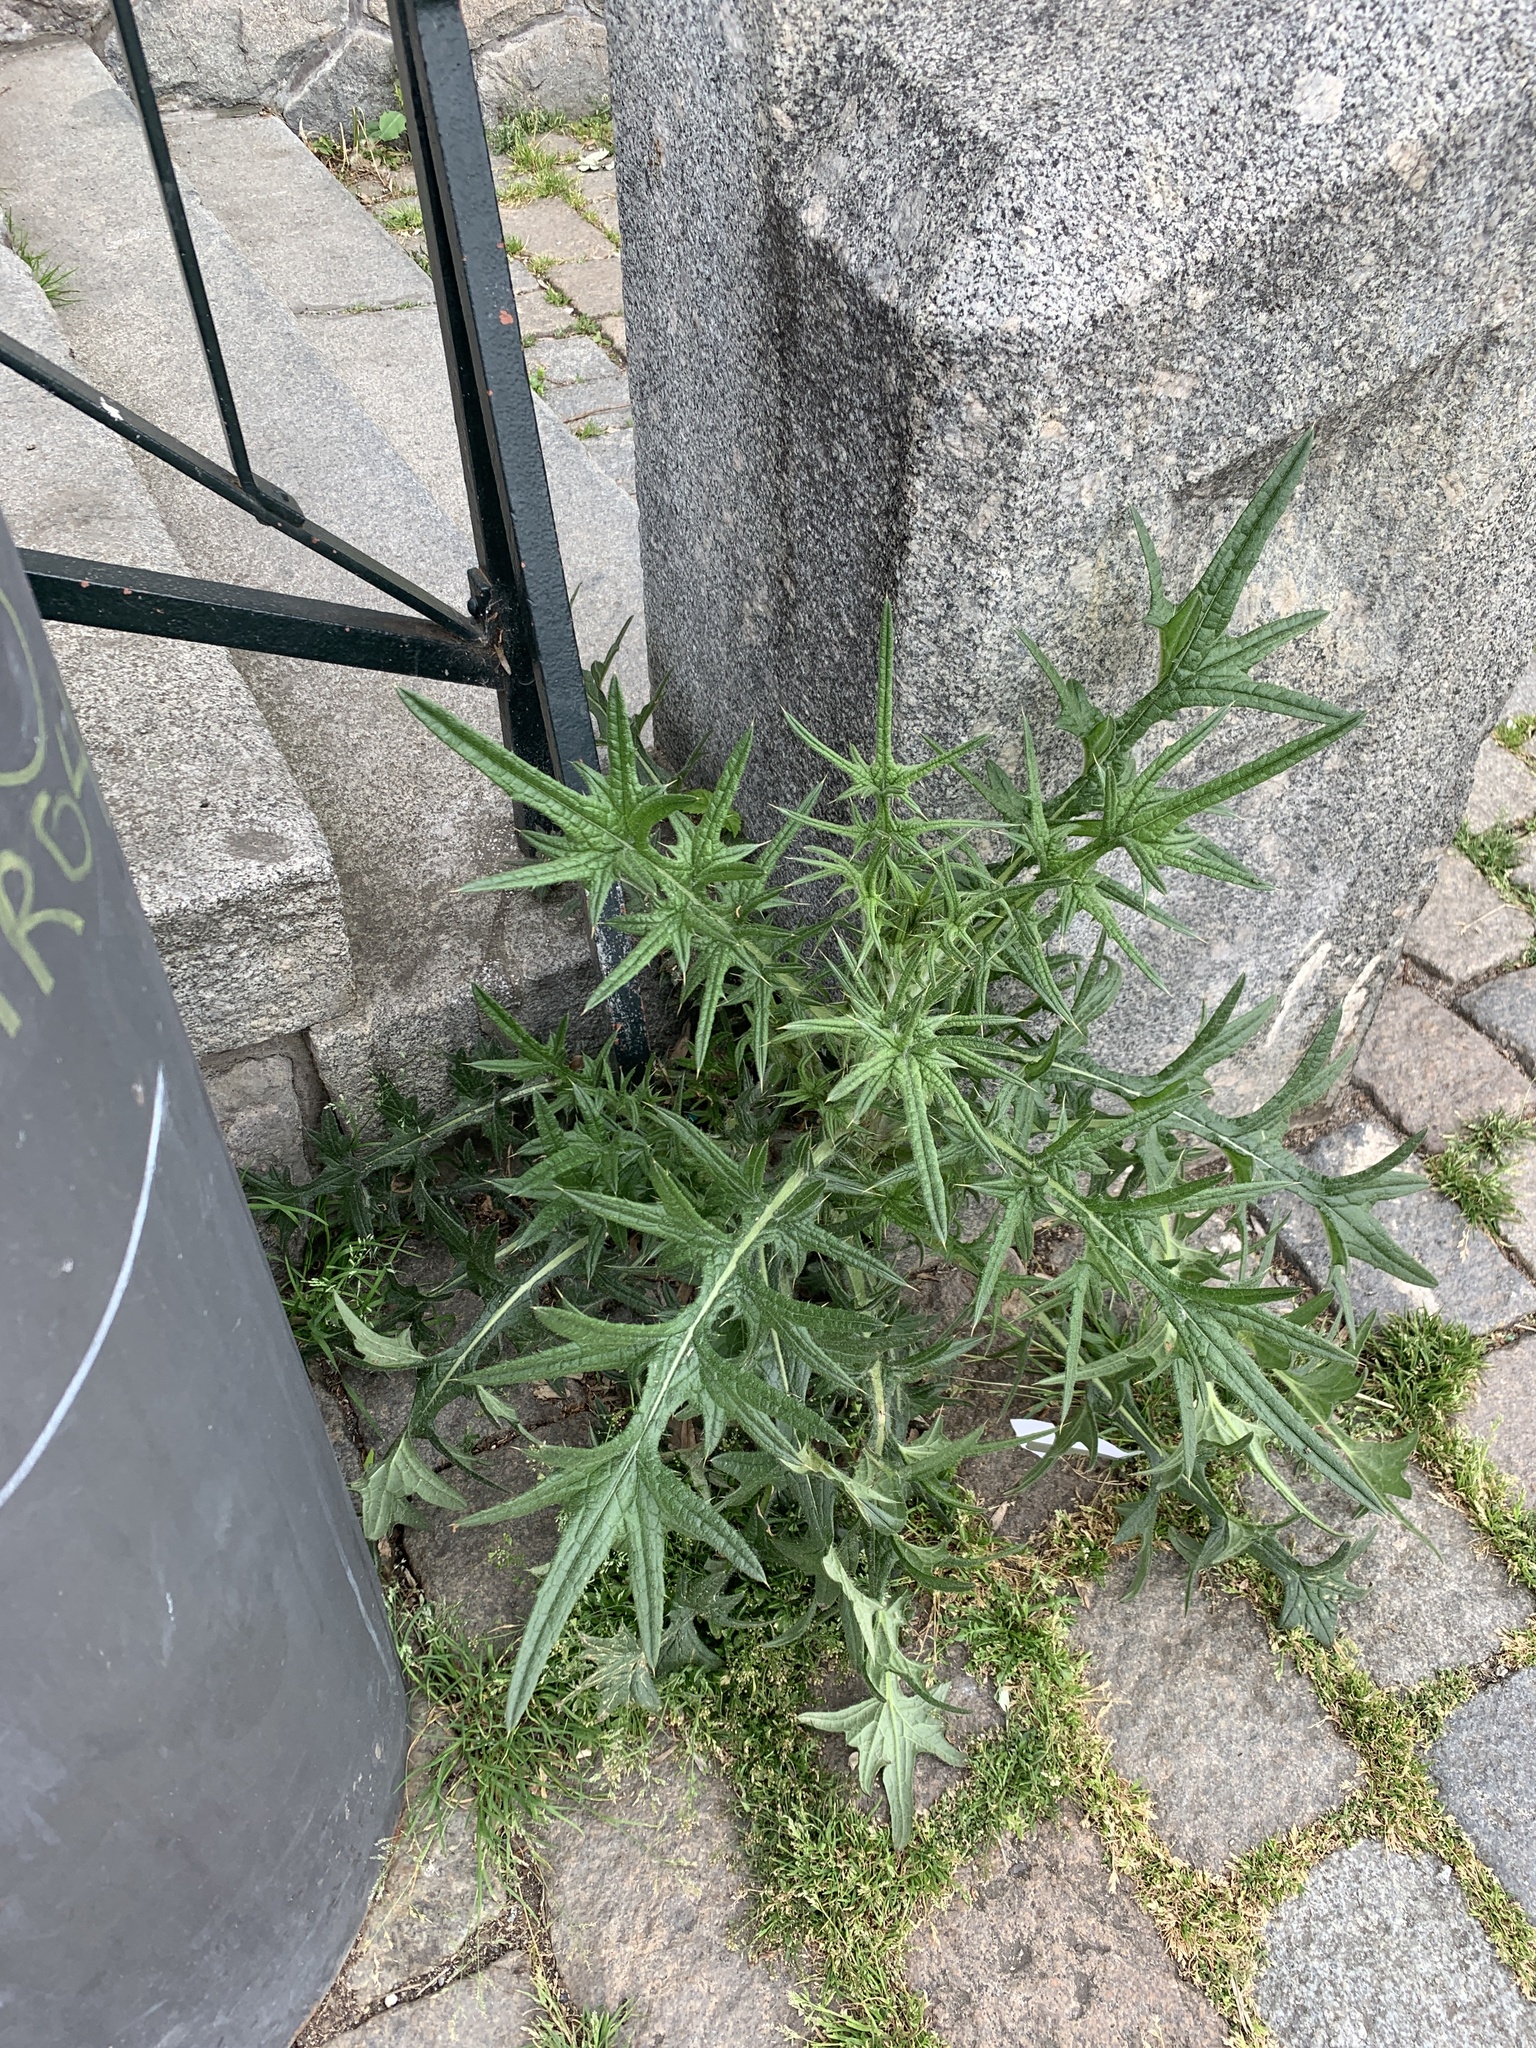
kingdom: Plantae
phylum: Tracheophyta
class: Magnoliopsida
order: Asterales
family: Asteraceae
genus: Cirsium
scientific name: Cirsium vulgare
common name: Bull thistle
